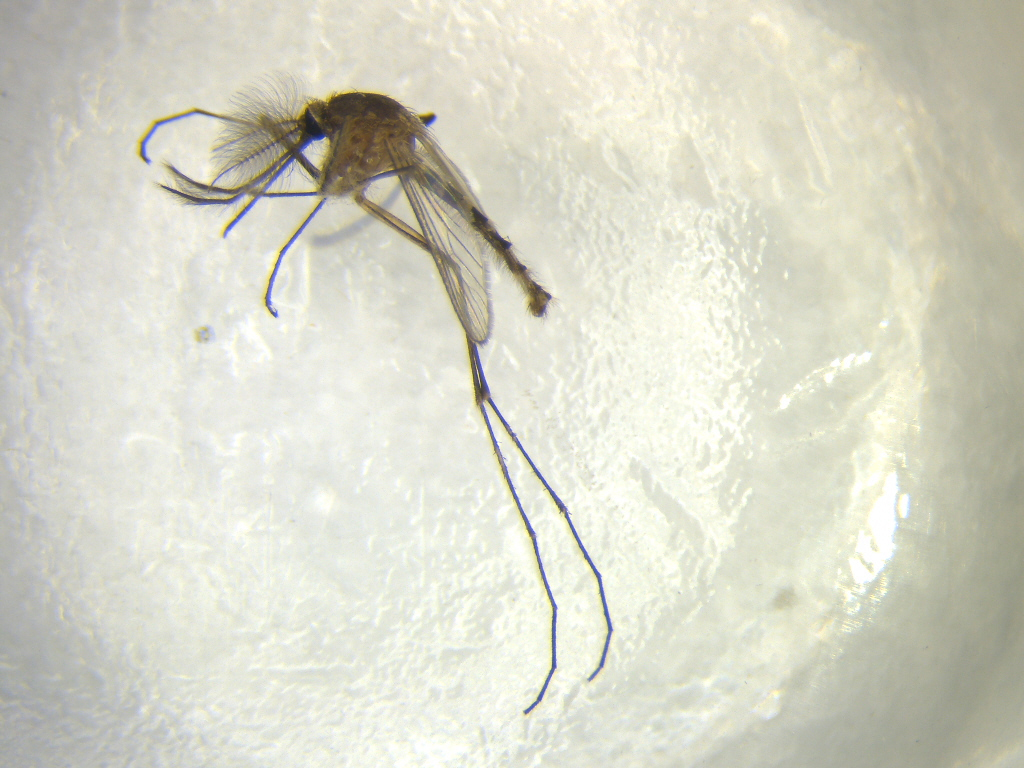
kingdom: Animalia
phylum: Arthropoda
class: Insecta
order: Diptera
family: Culicidae
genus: Culex
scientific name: Culex quinquefasciatus
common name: Southern house mosquito
